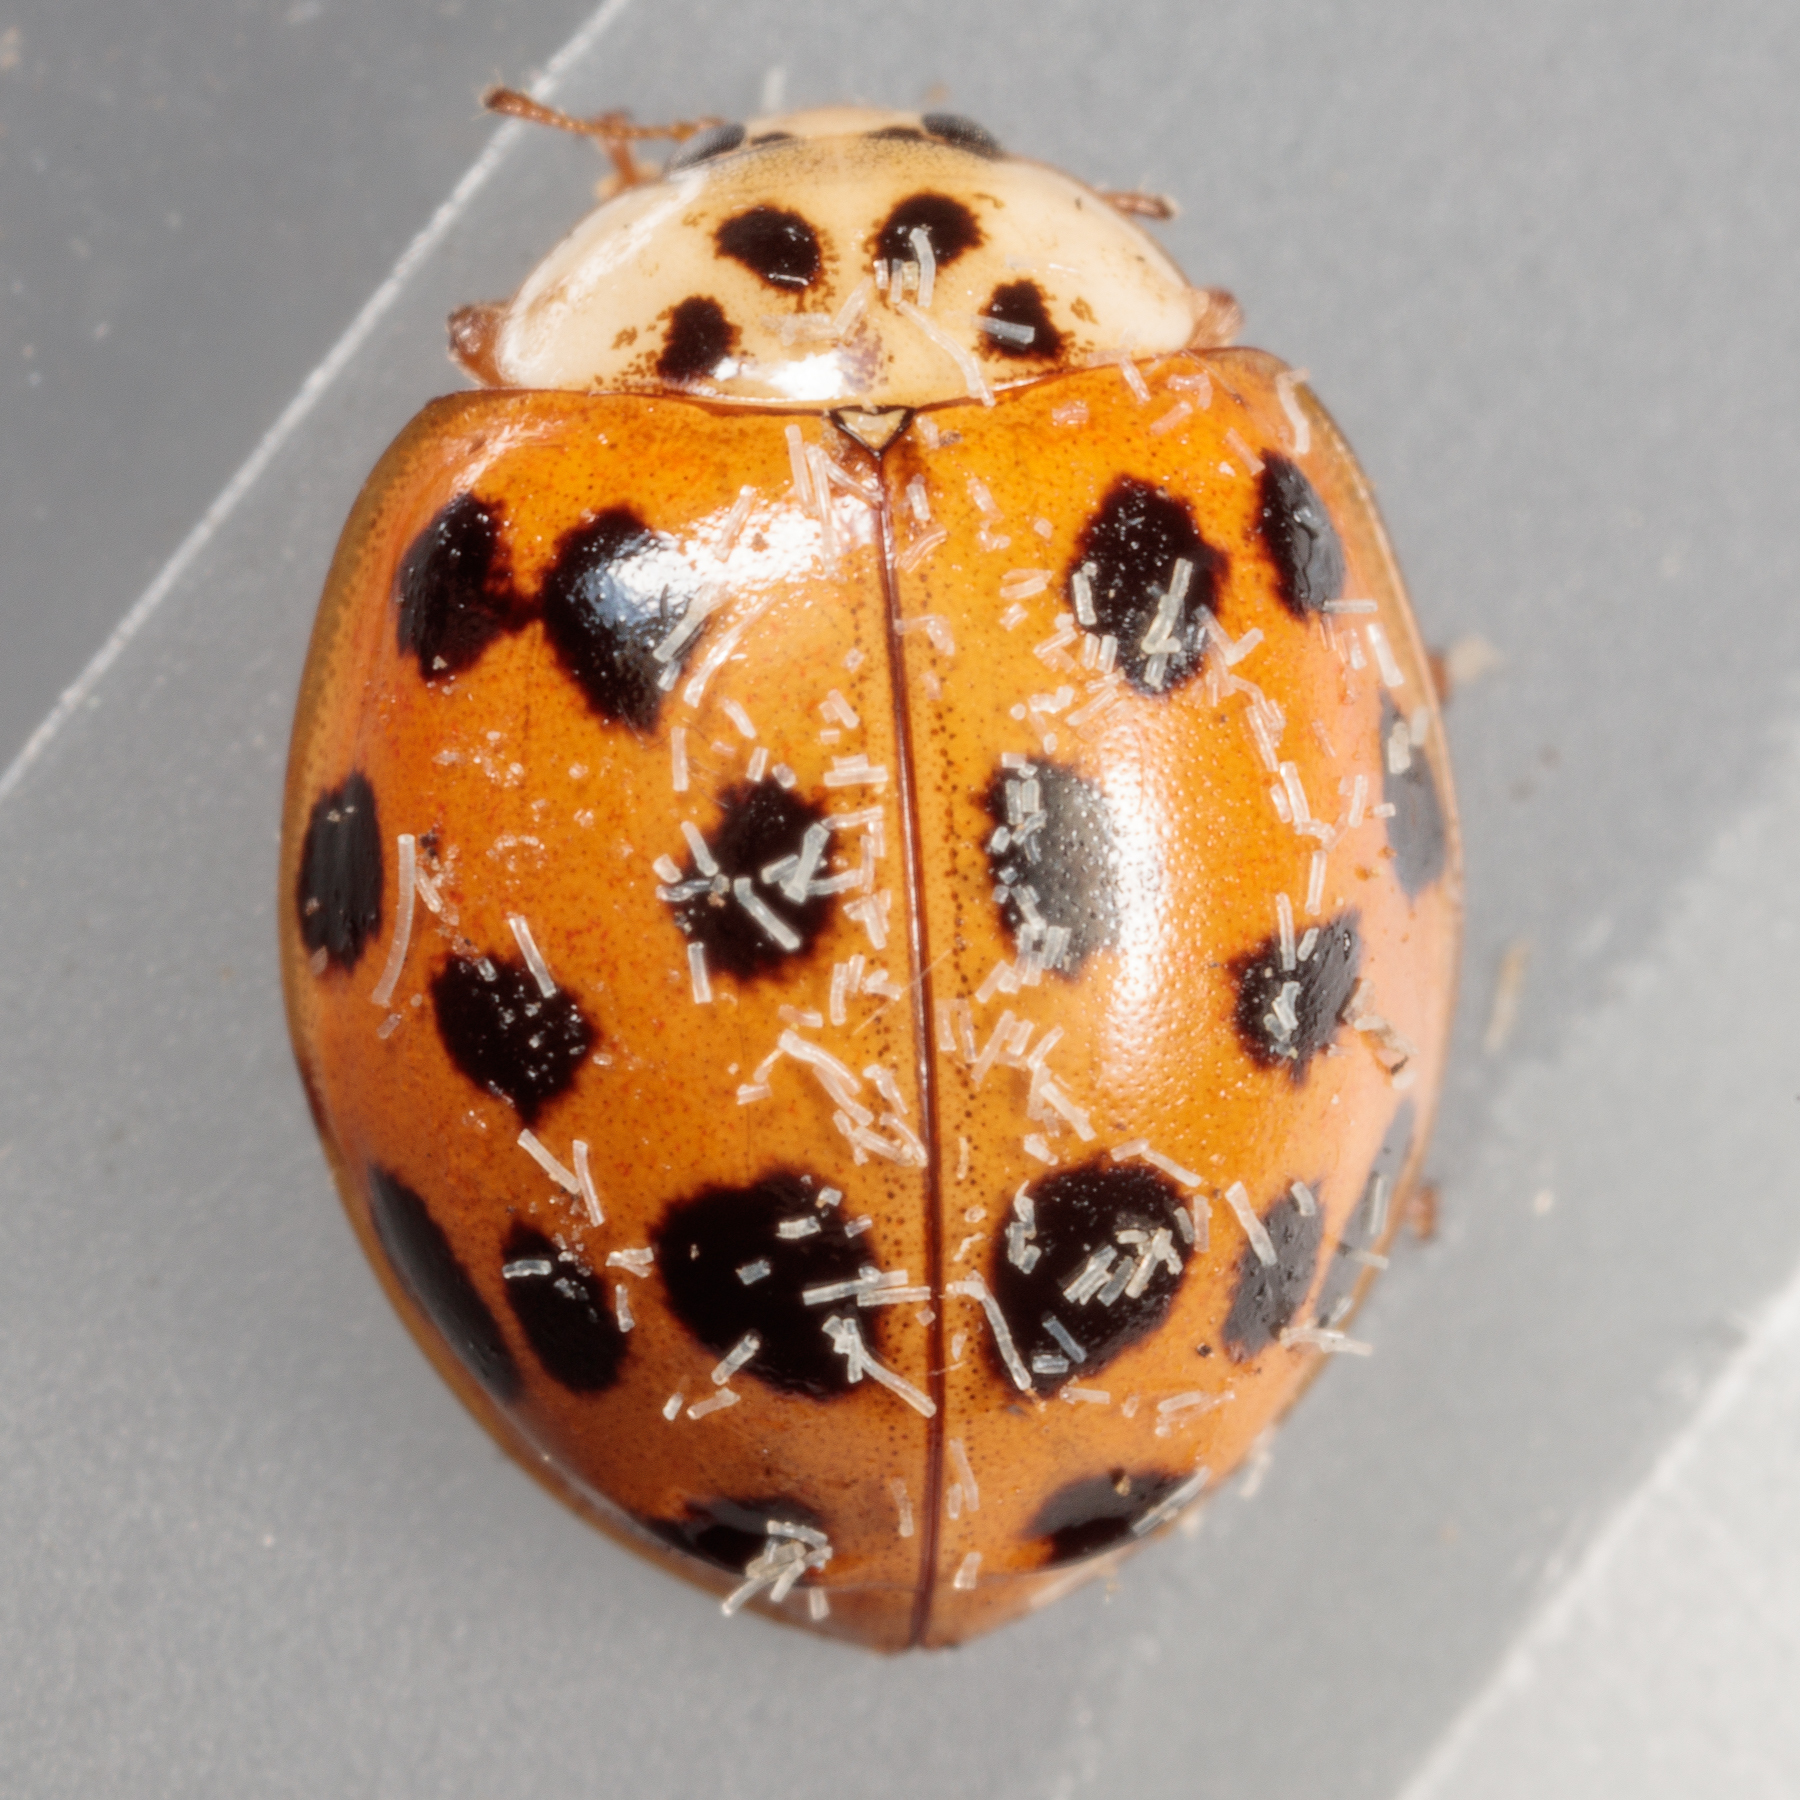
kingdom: Animalia
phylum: Arthropoda
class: Insecta
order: Coleoptera
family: Coccinellidae
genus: Harmonia
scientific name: Harmonia axyridis
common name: Harlequin ladybird
